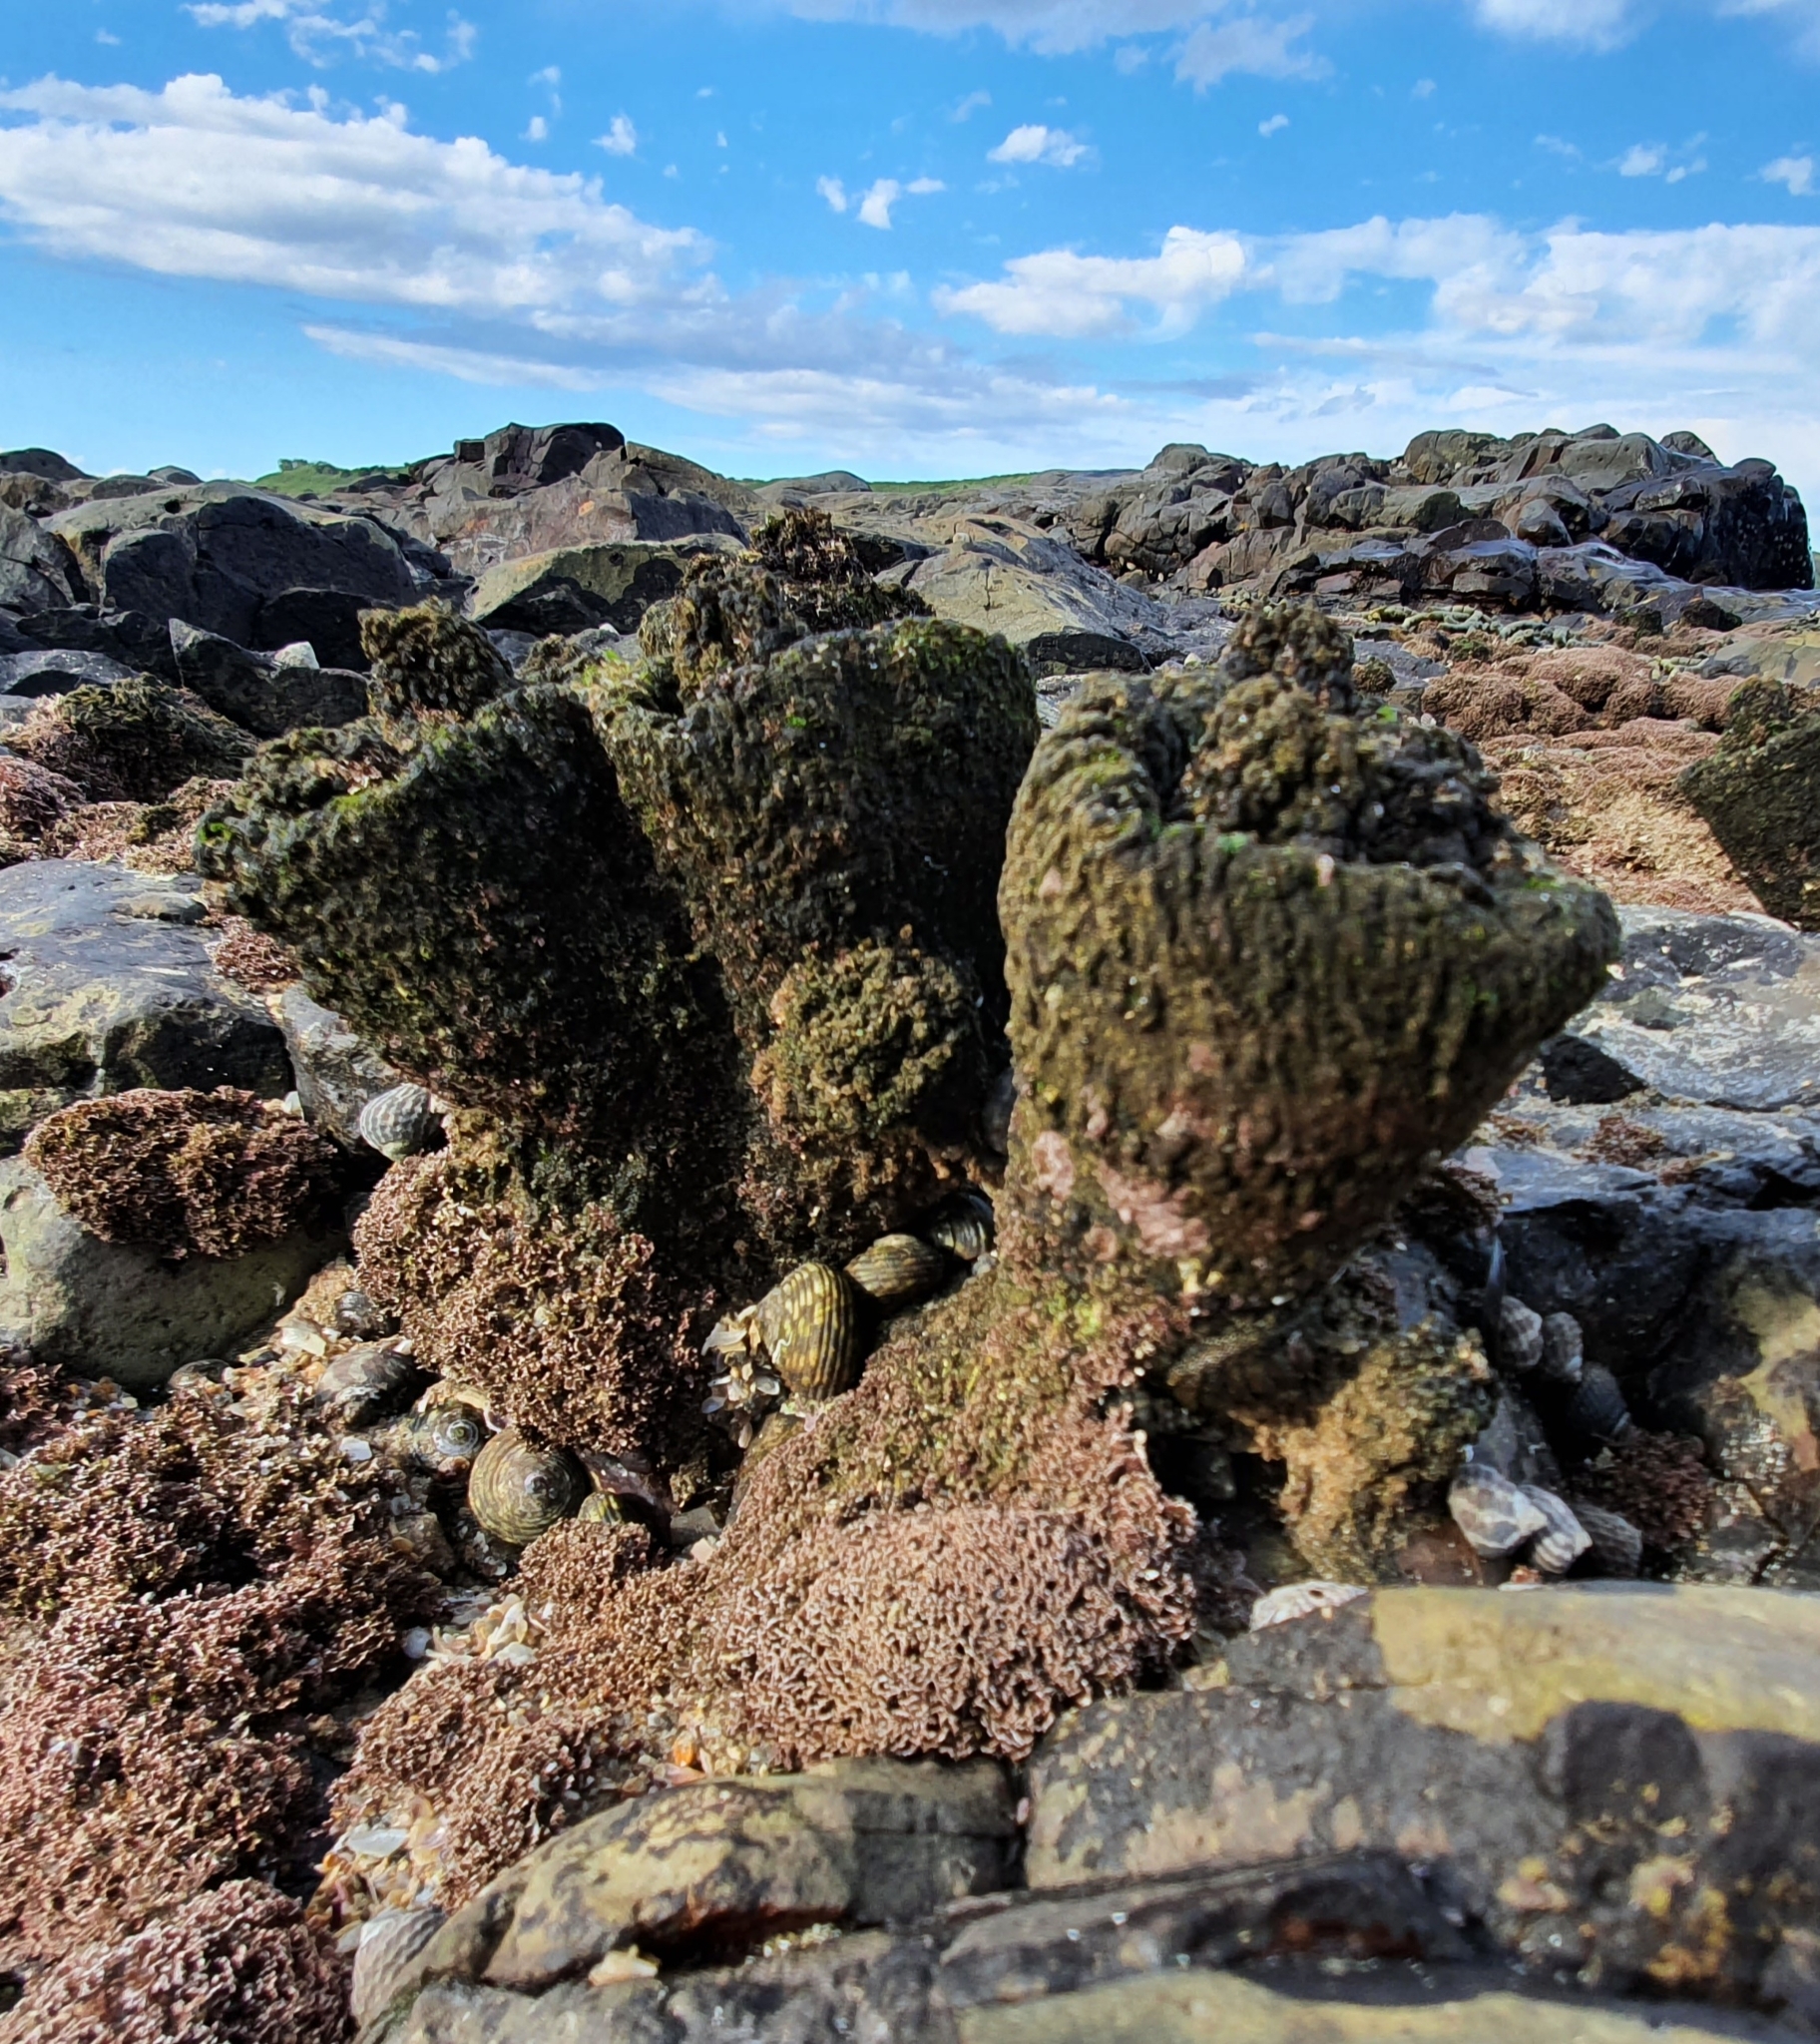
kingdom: Animalia
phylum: Chordata
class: Ascidiacea
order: Stolidobranchia
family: Pyuridae
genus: Pyura
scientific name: Pyura praeputialis
